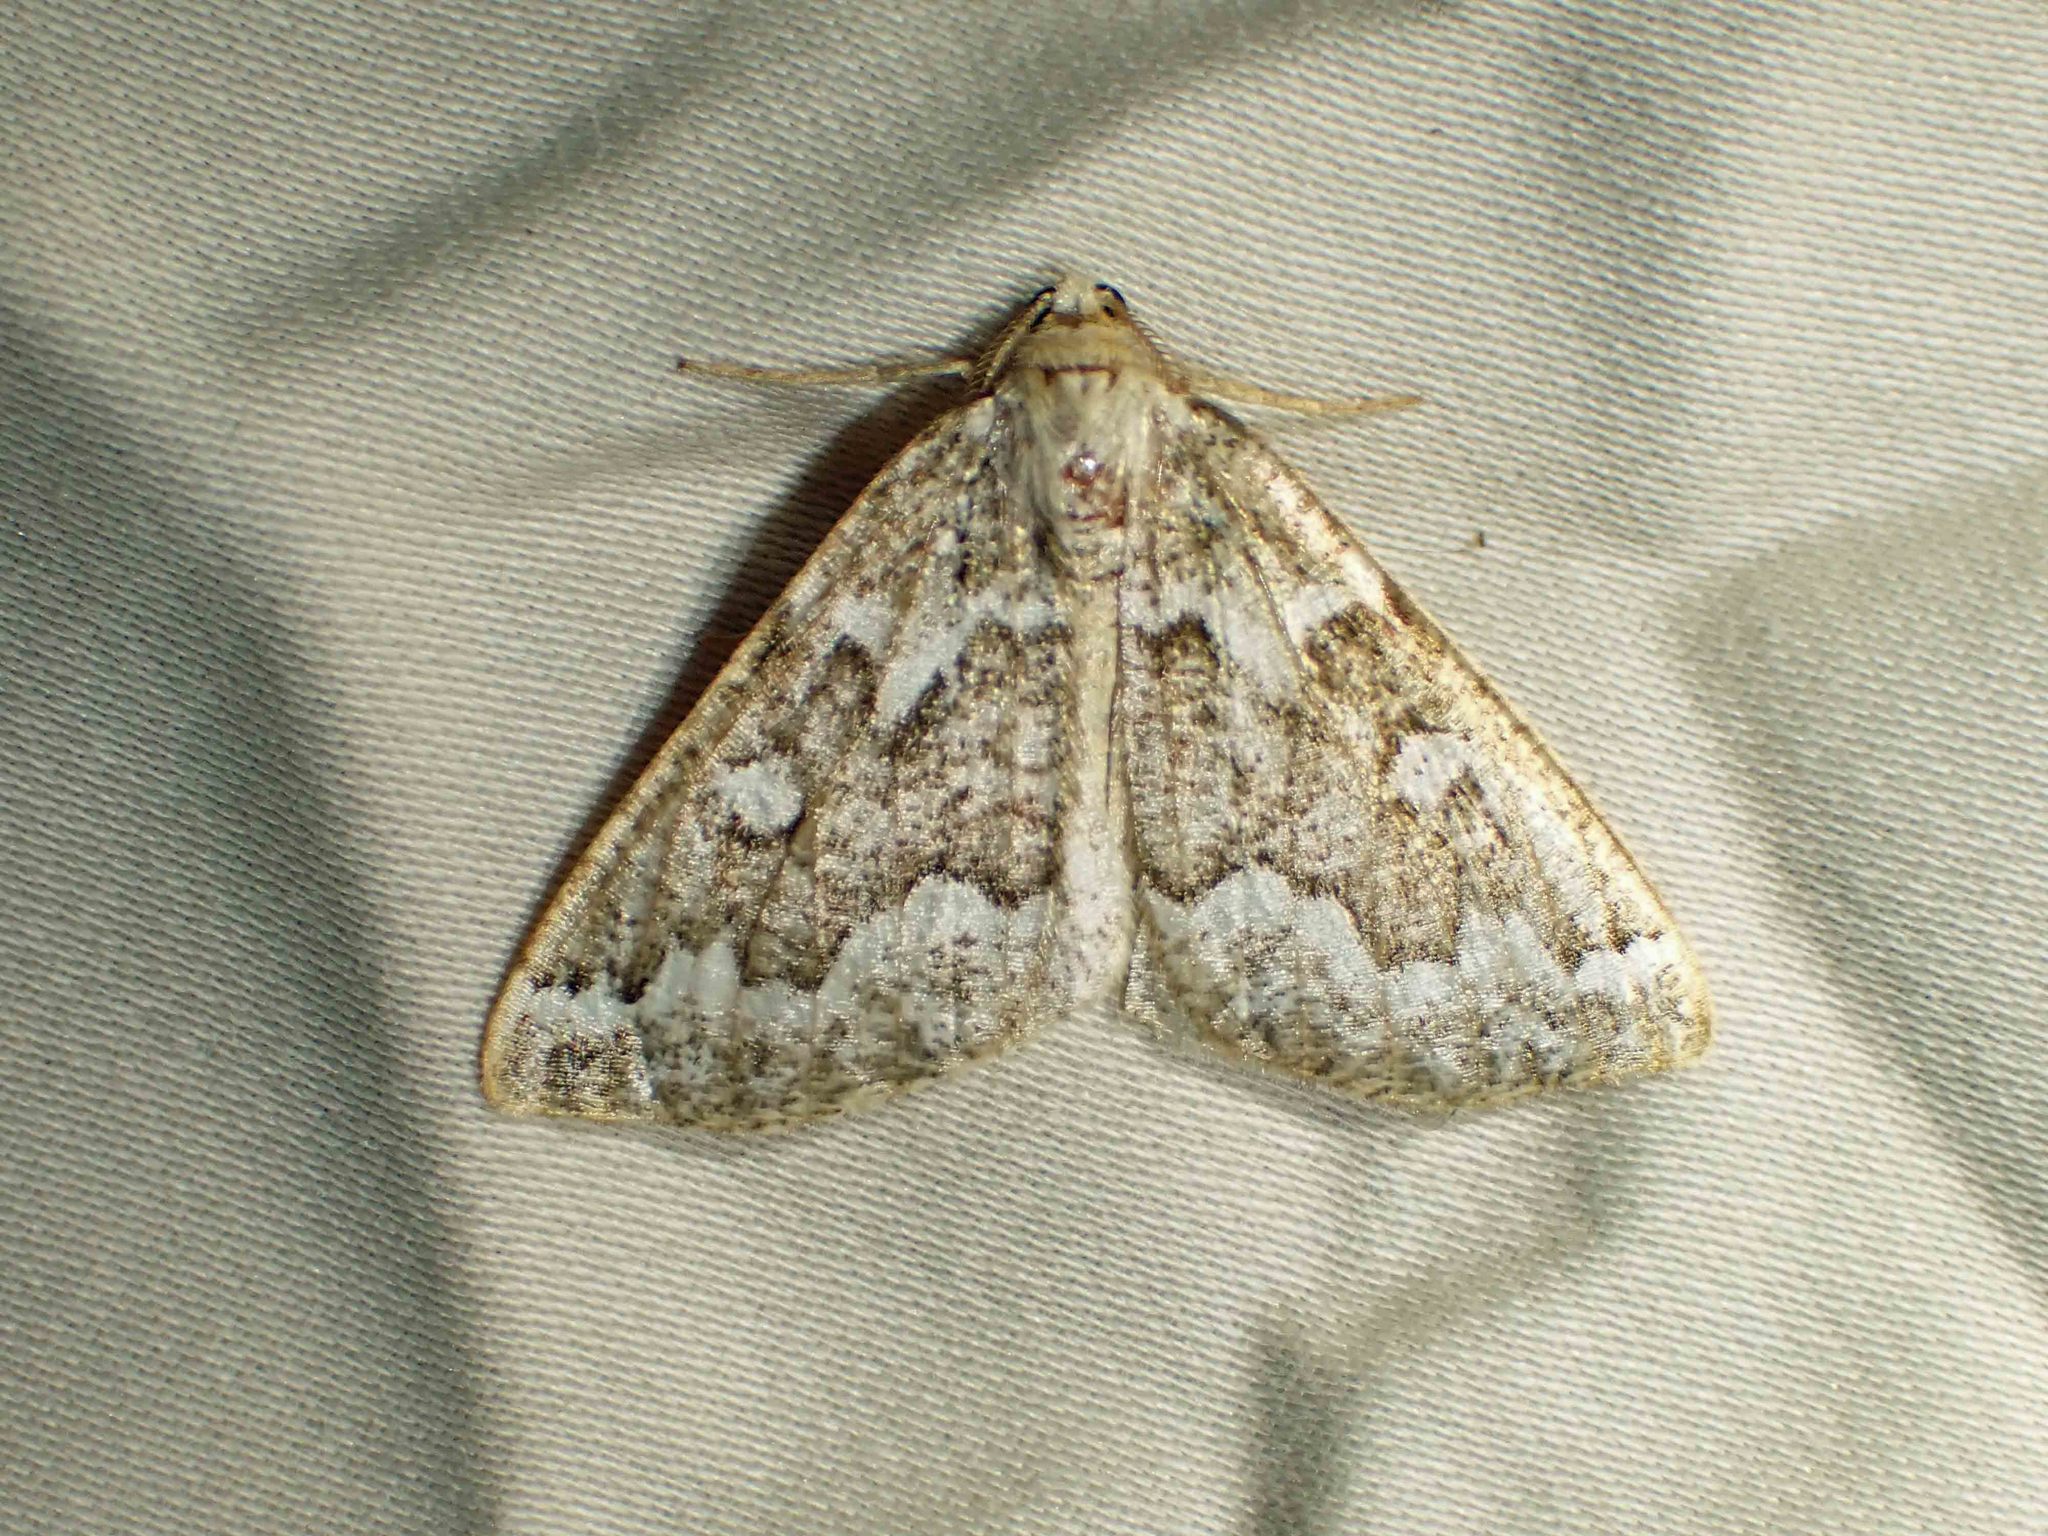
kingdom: Animalia
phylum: Arthropoda
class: Insecta
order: Lepidoptera
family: Geometridae
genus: Caripeta
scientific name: Caripeta divisata
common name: Gray spruce looper
